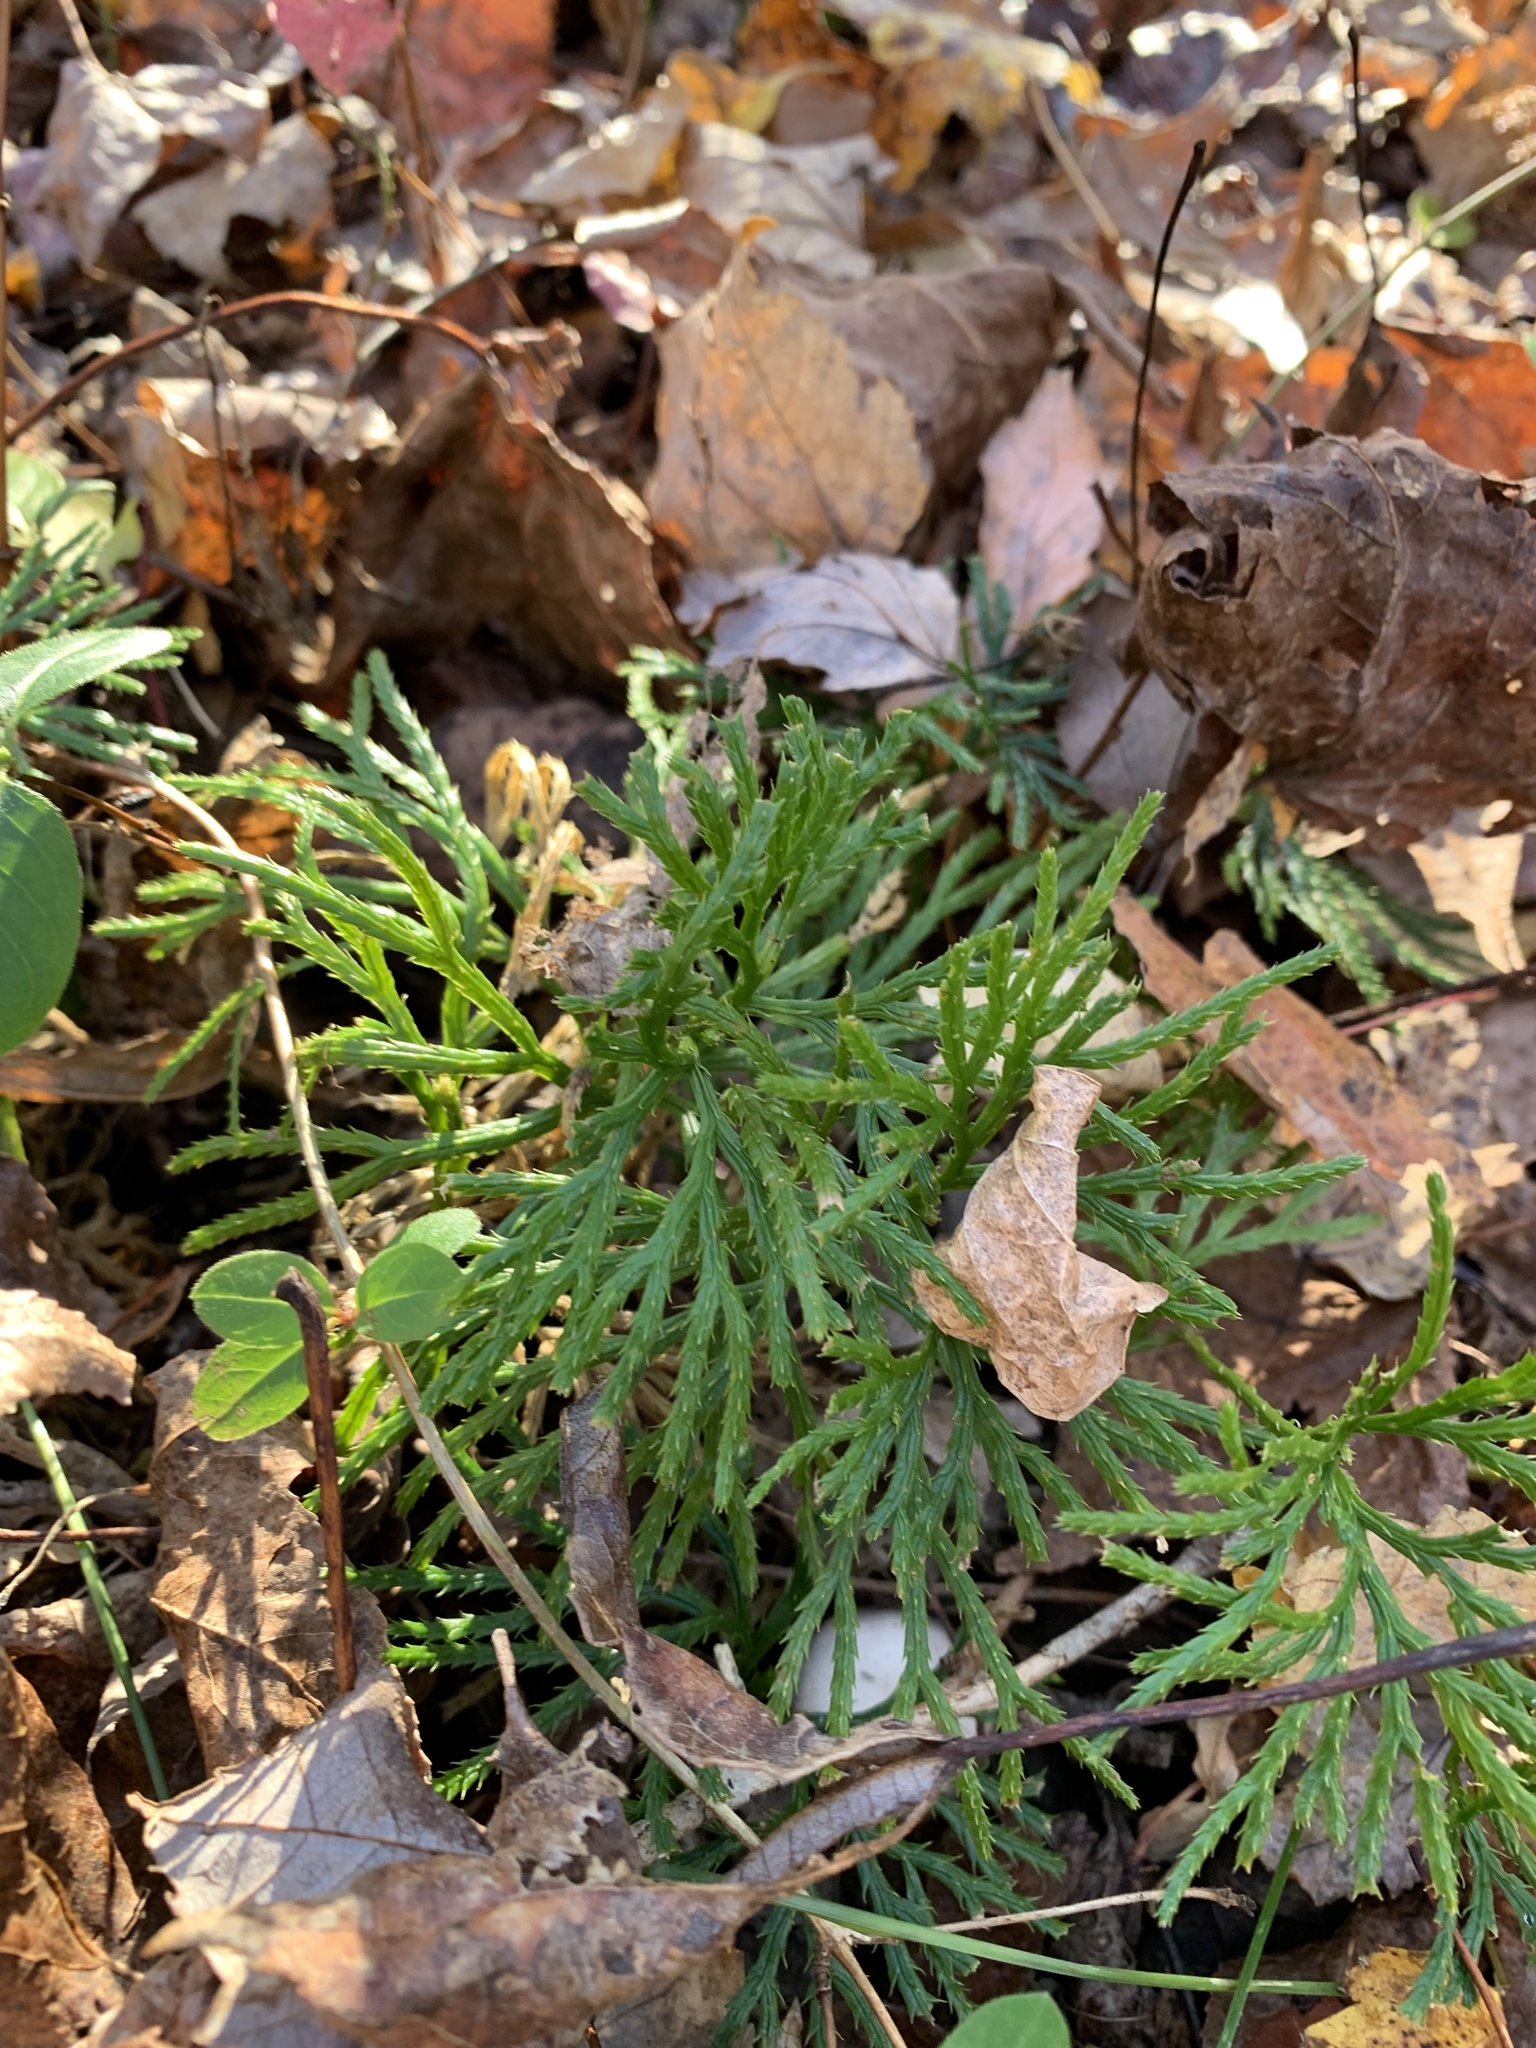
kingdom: Plantae
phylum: Tracheophyta
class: Lycopodiopsida
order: Lycopodiales
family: Lycopodiaceae
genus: Diphasiastrum
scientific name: Diphasiastrum digitatum
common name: Southern running-pine
